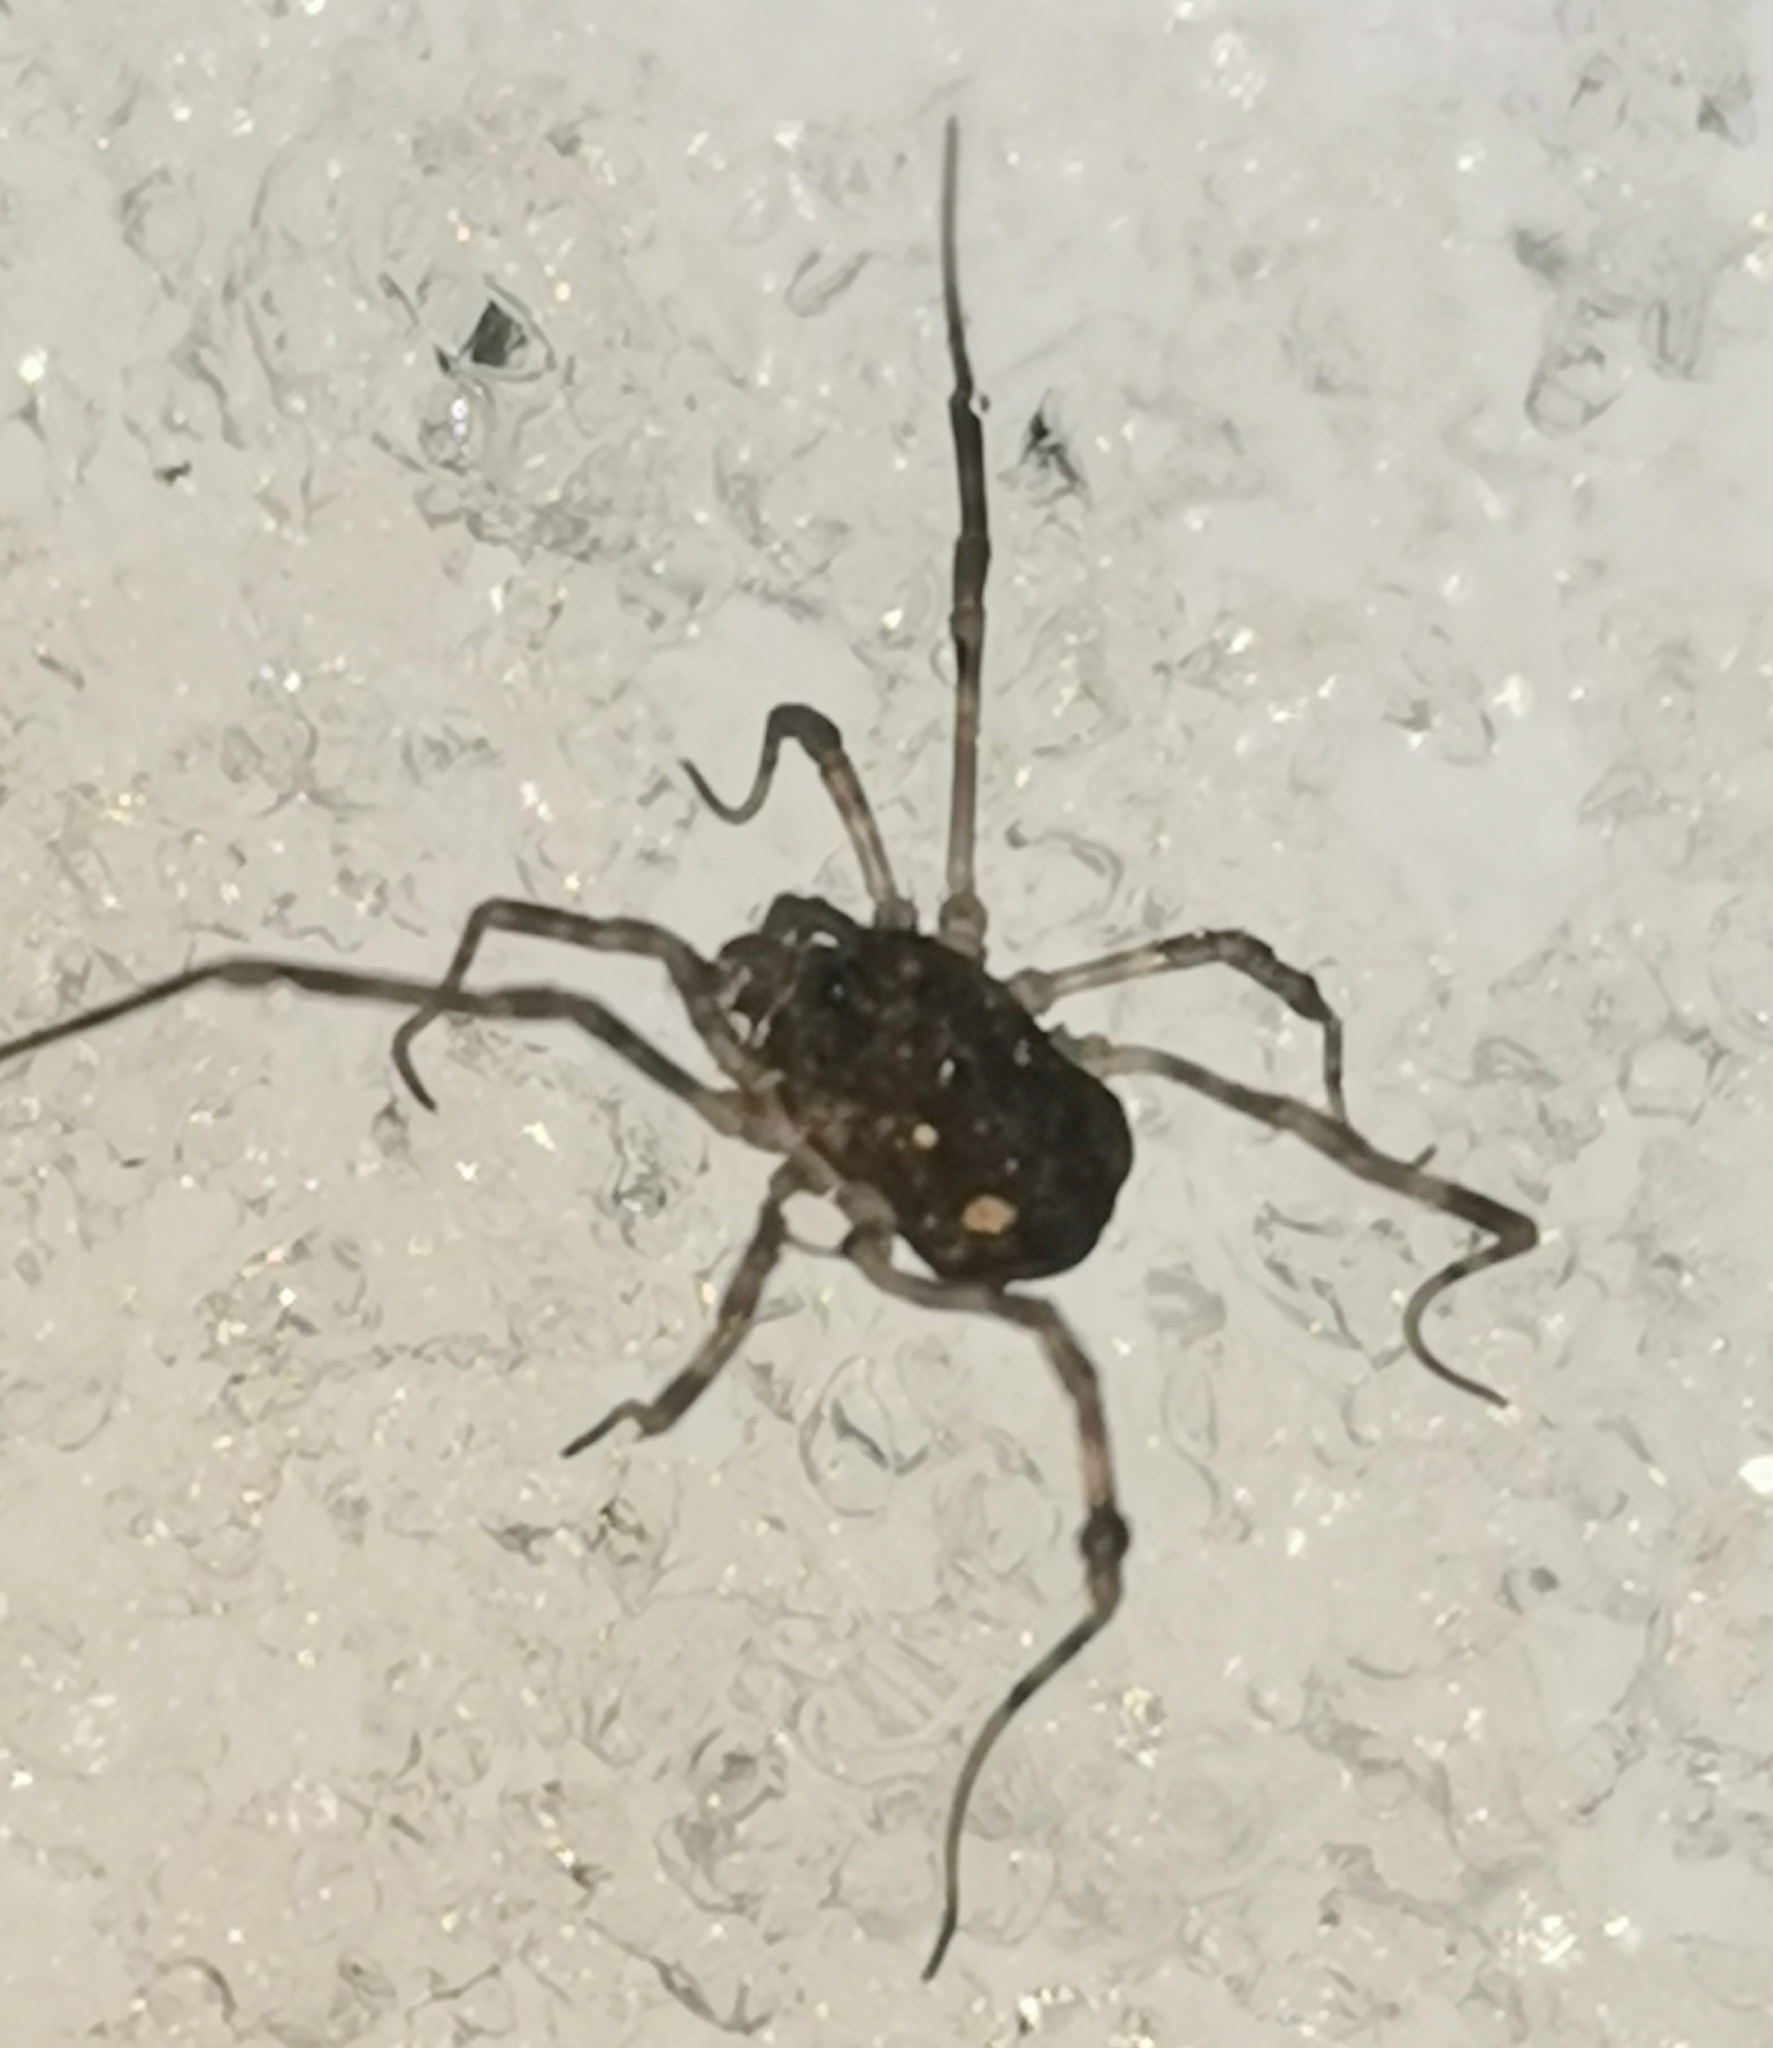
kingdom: Animalia
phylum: Arthropoda
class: Arachnida
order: Opiliones
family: Phalangiidae
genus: Rilaena
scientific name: Rilaena triangularis
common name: Spring harvestman
